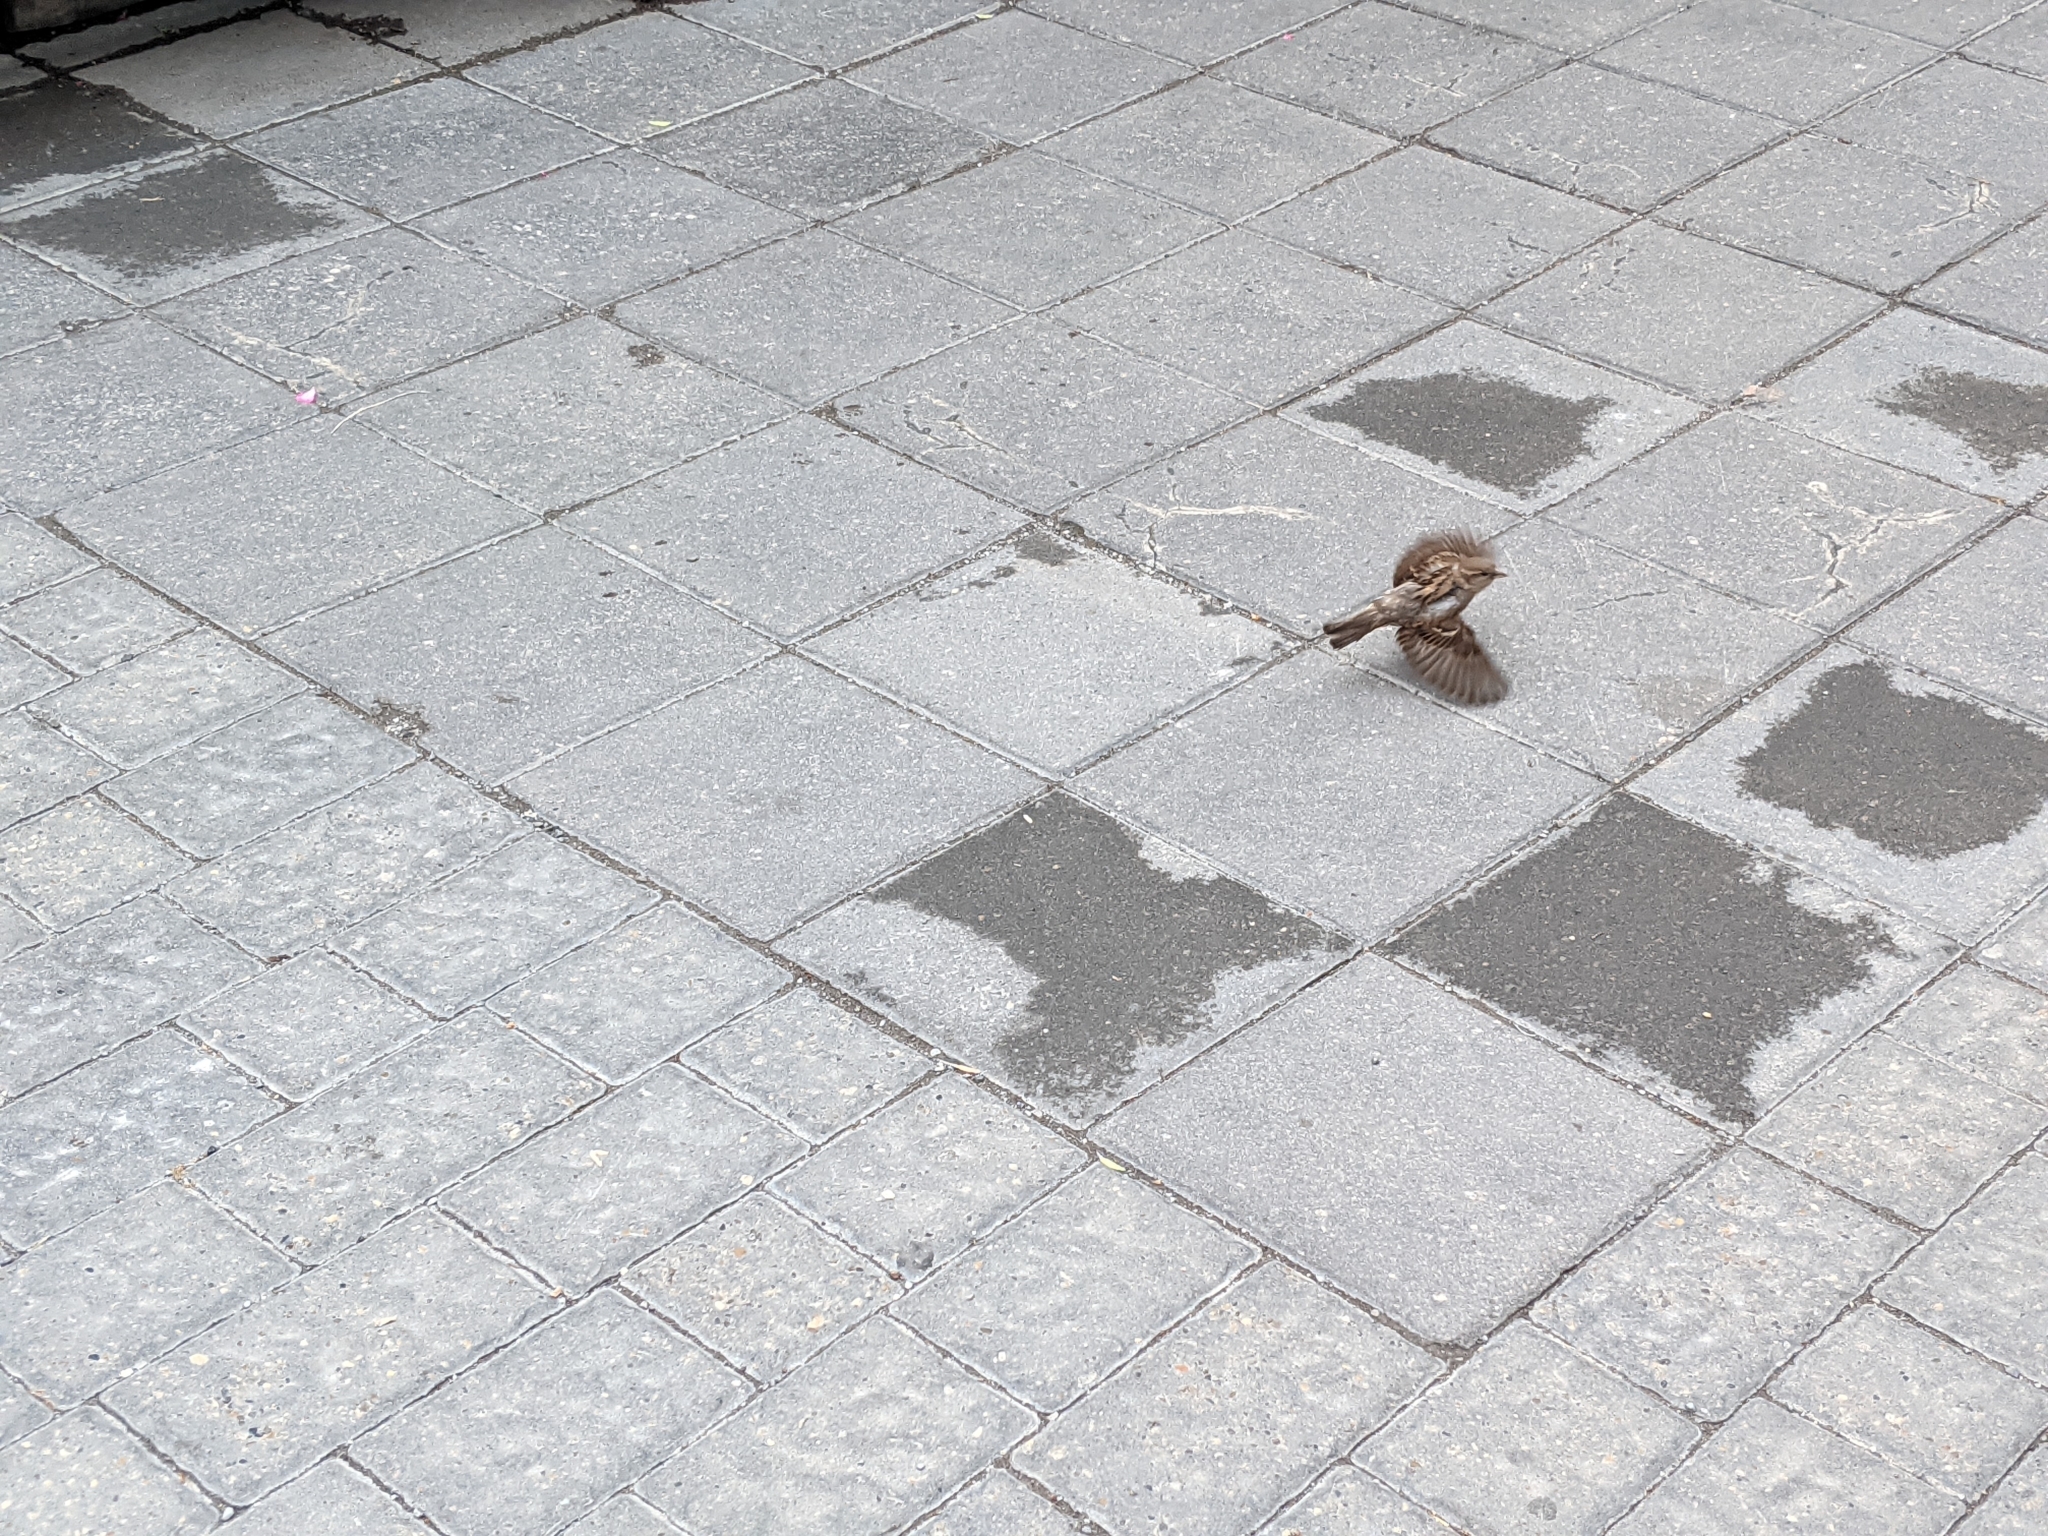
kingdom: Animalia
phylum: Chordata
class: Aves
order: Passeriformes
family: Passeridae
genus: Passer
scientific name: Passer domesticus
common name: House sparrow
